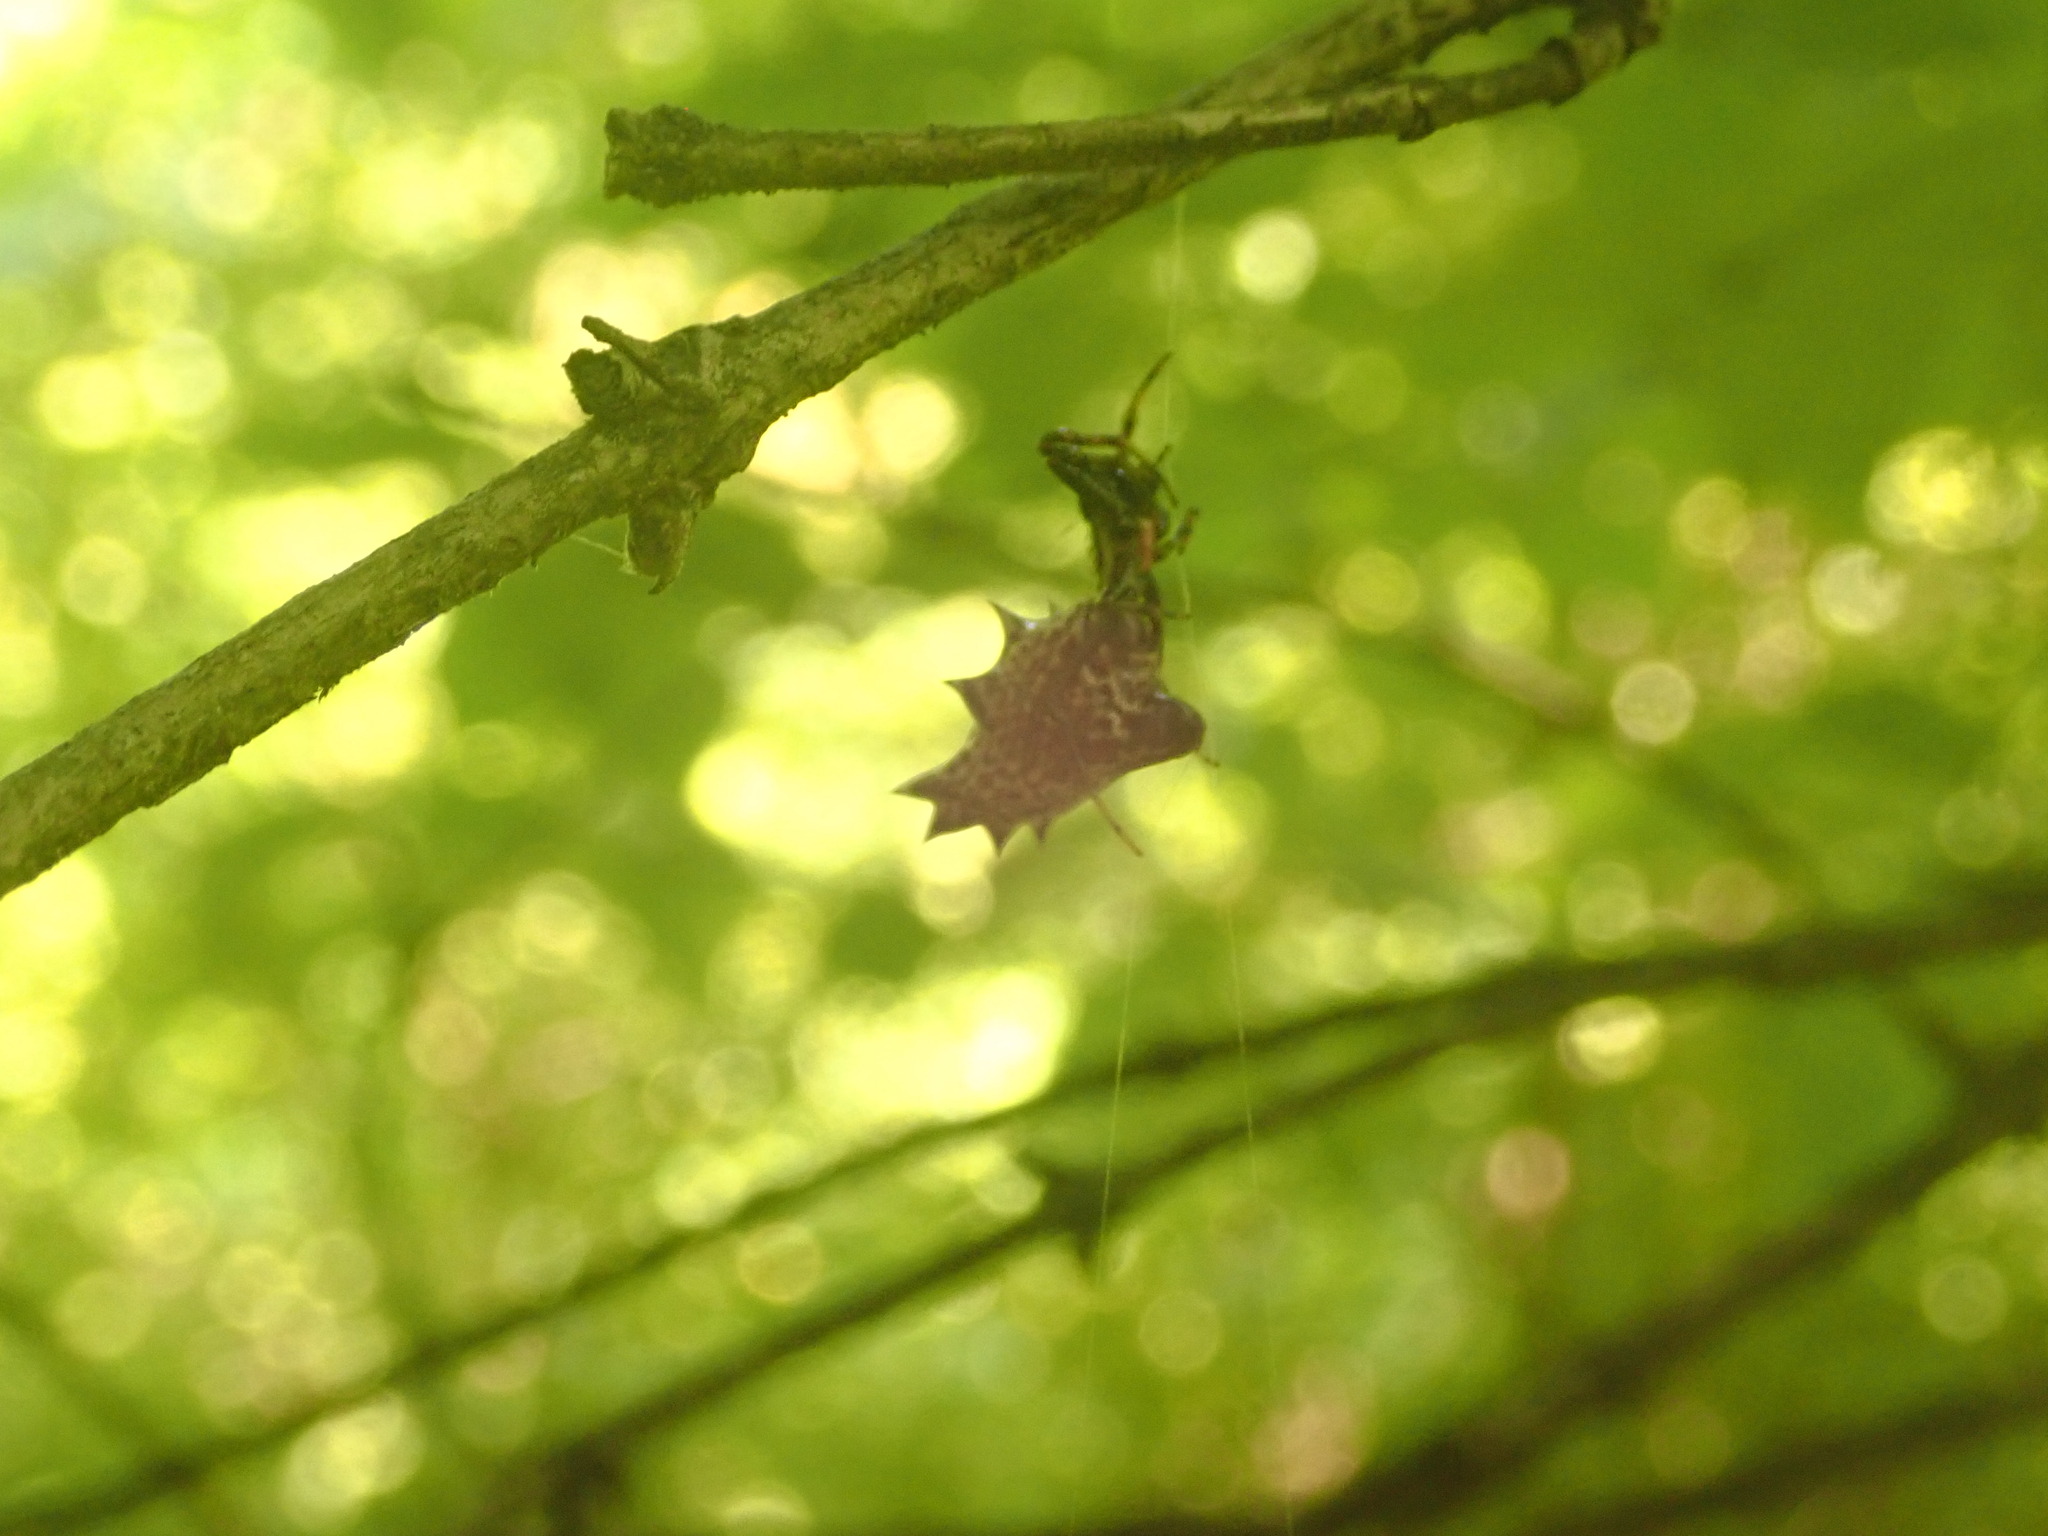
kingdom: Animalia
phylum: Arthropoda
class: Arachnida
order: Araneae
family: Araneidae
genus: Micrathena
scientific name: Micrathena gracilis
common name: Orb weavers
